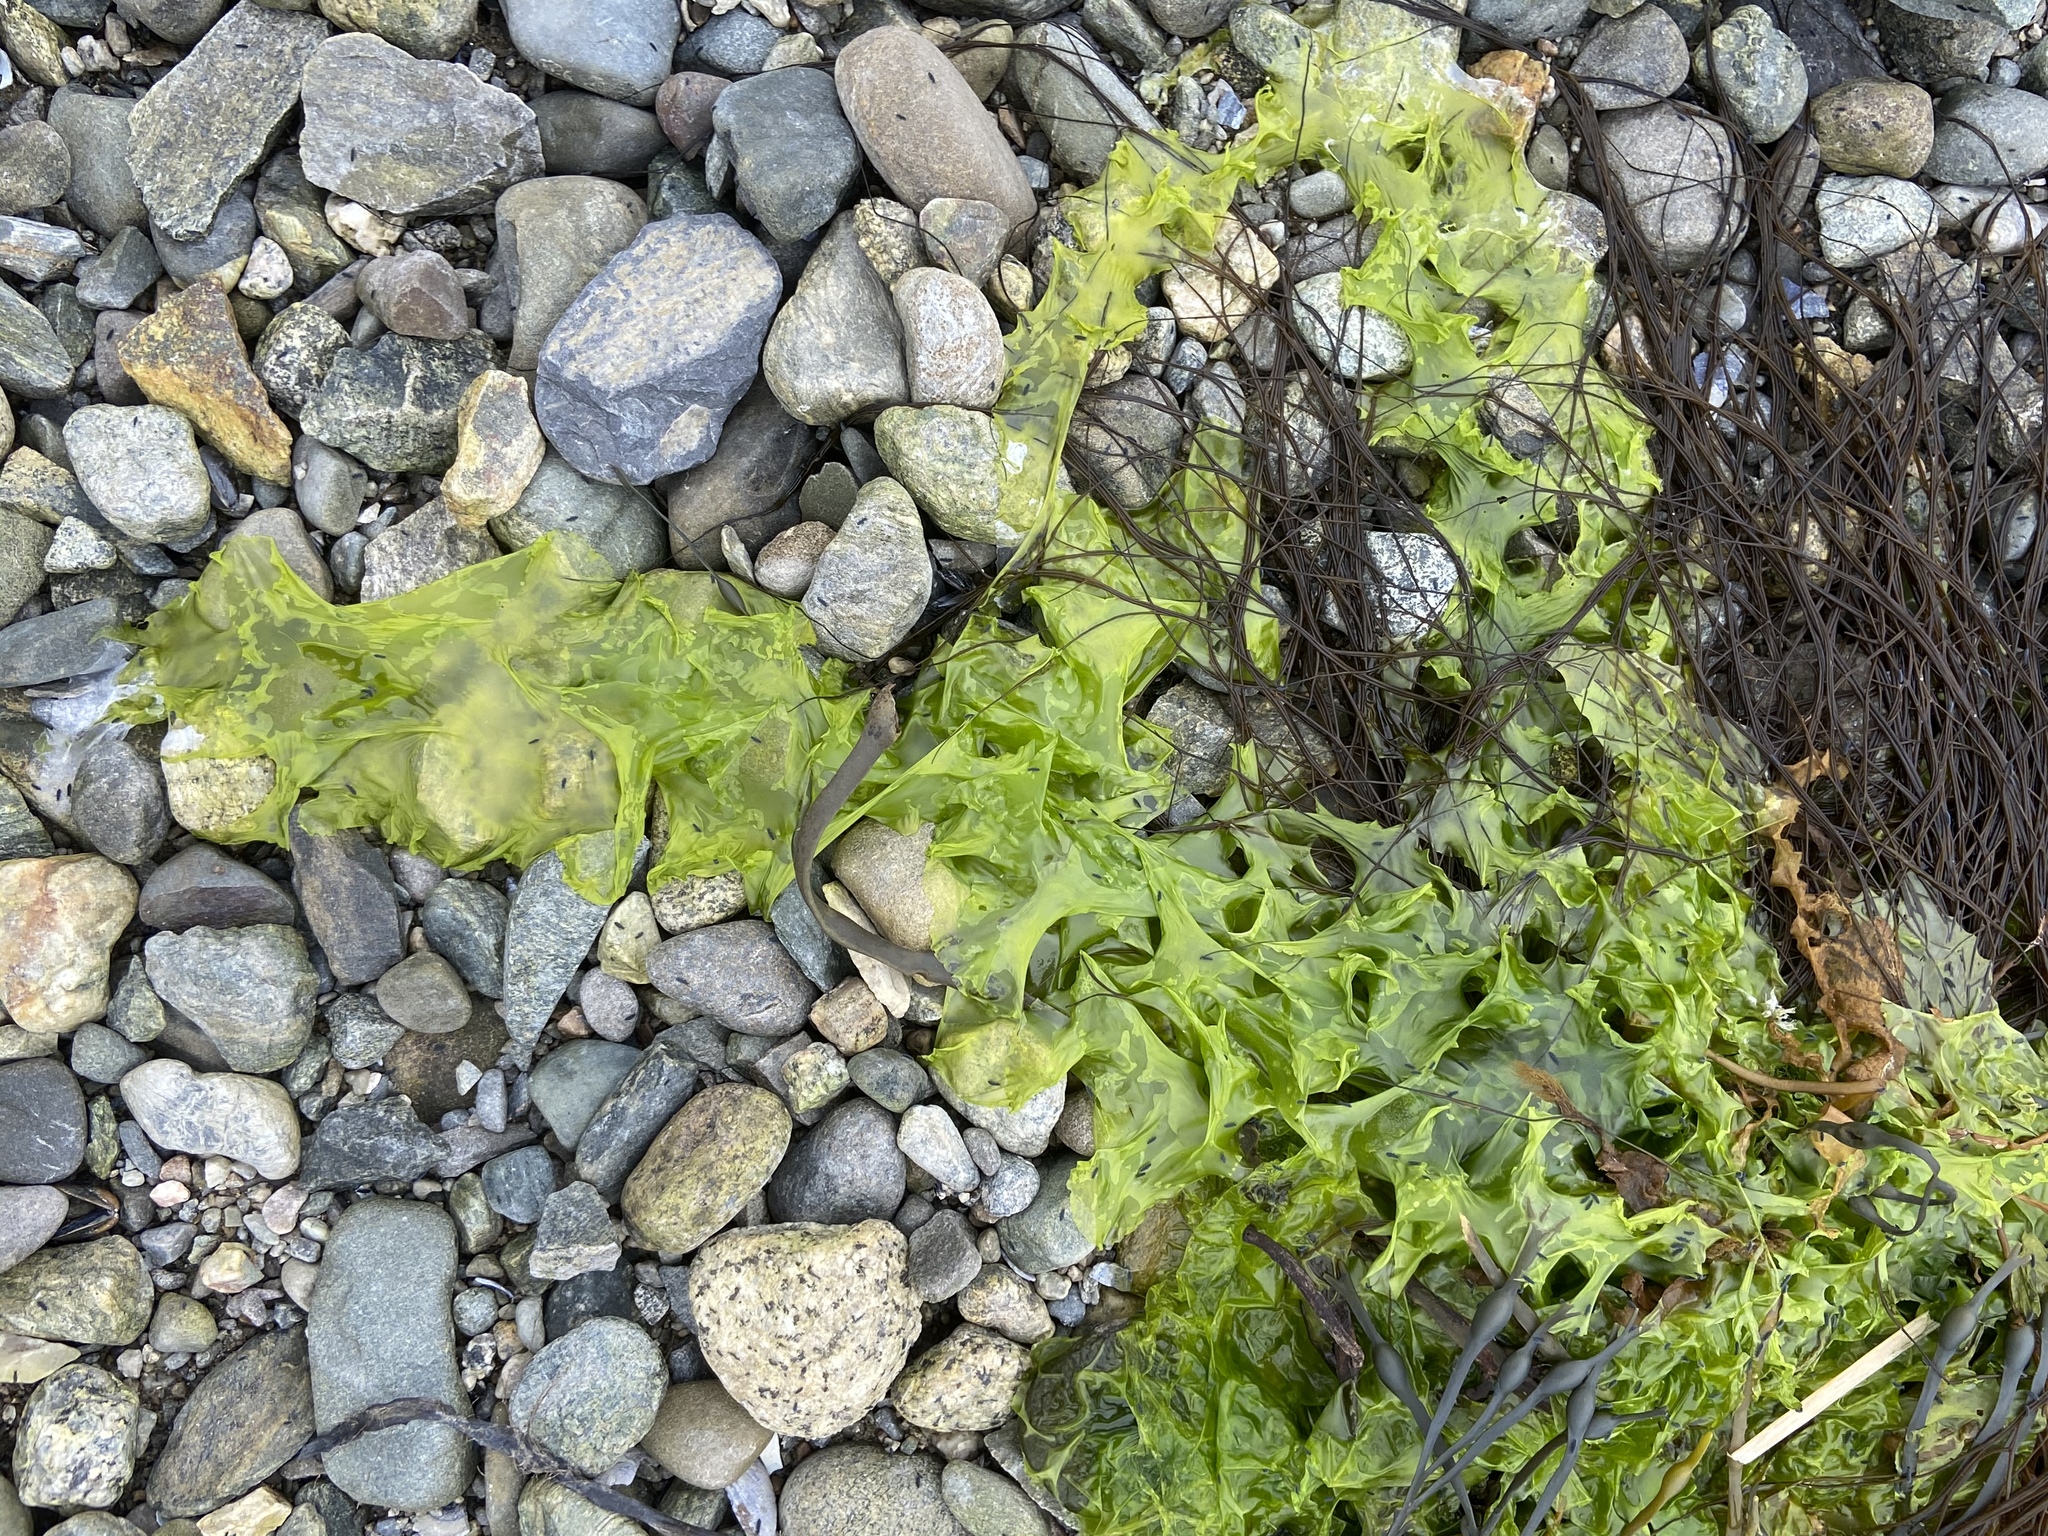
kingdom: Plantae
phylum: Chlorophyta
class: Ulvophyceae
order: Ulvales
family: Ulvaceae
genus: Ulva
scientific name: Ulva lactuca
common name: Sea lettuce
